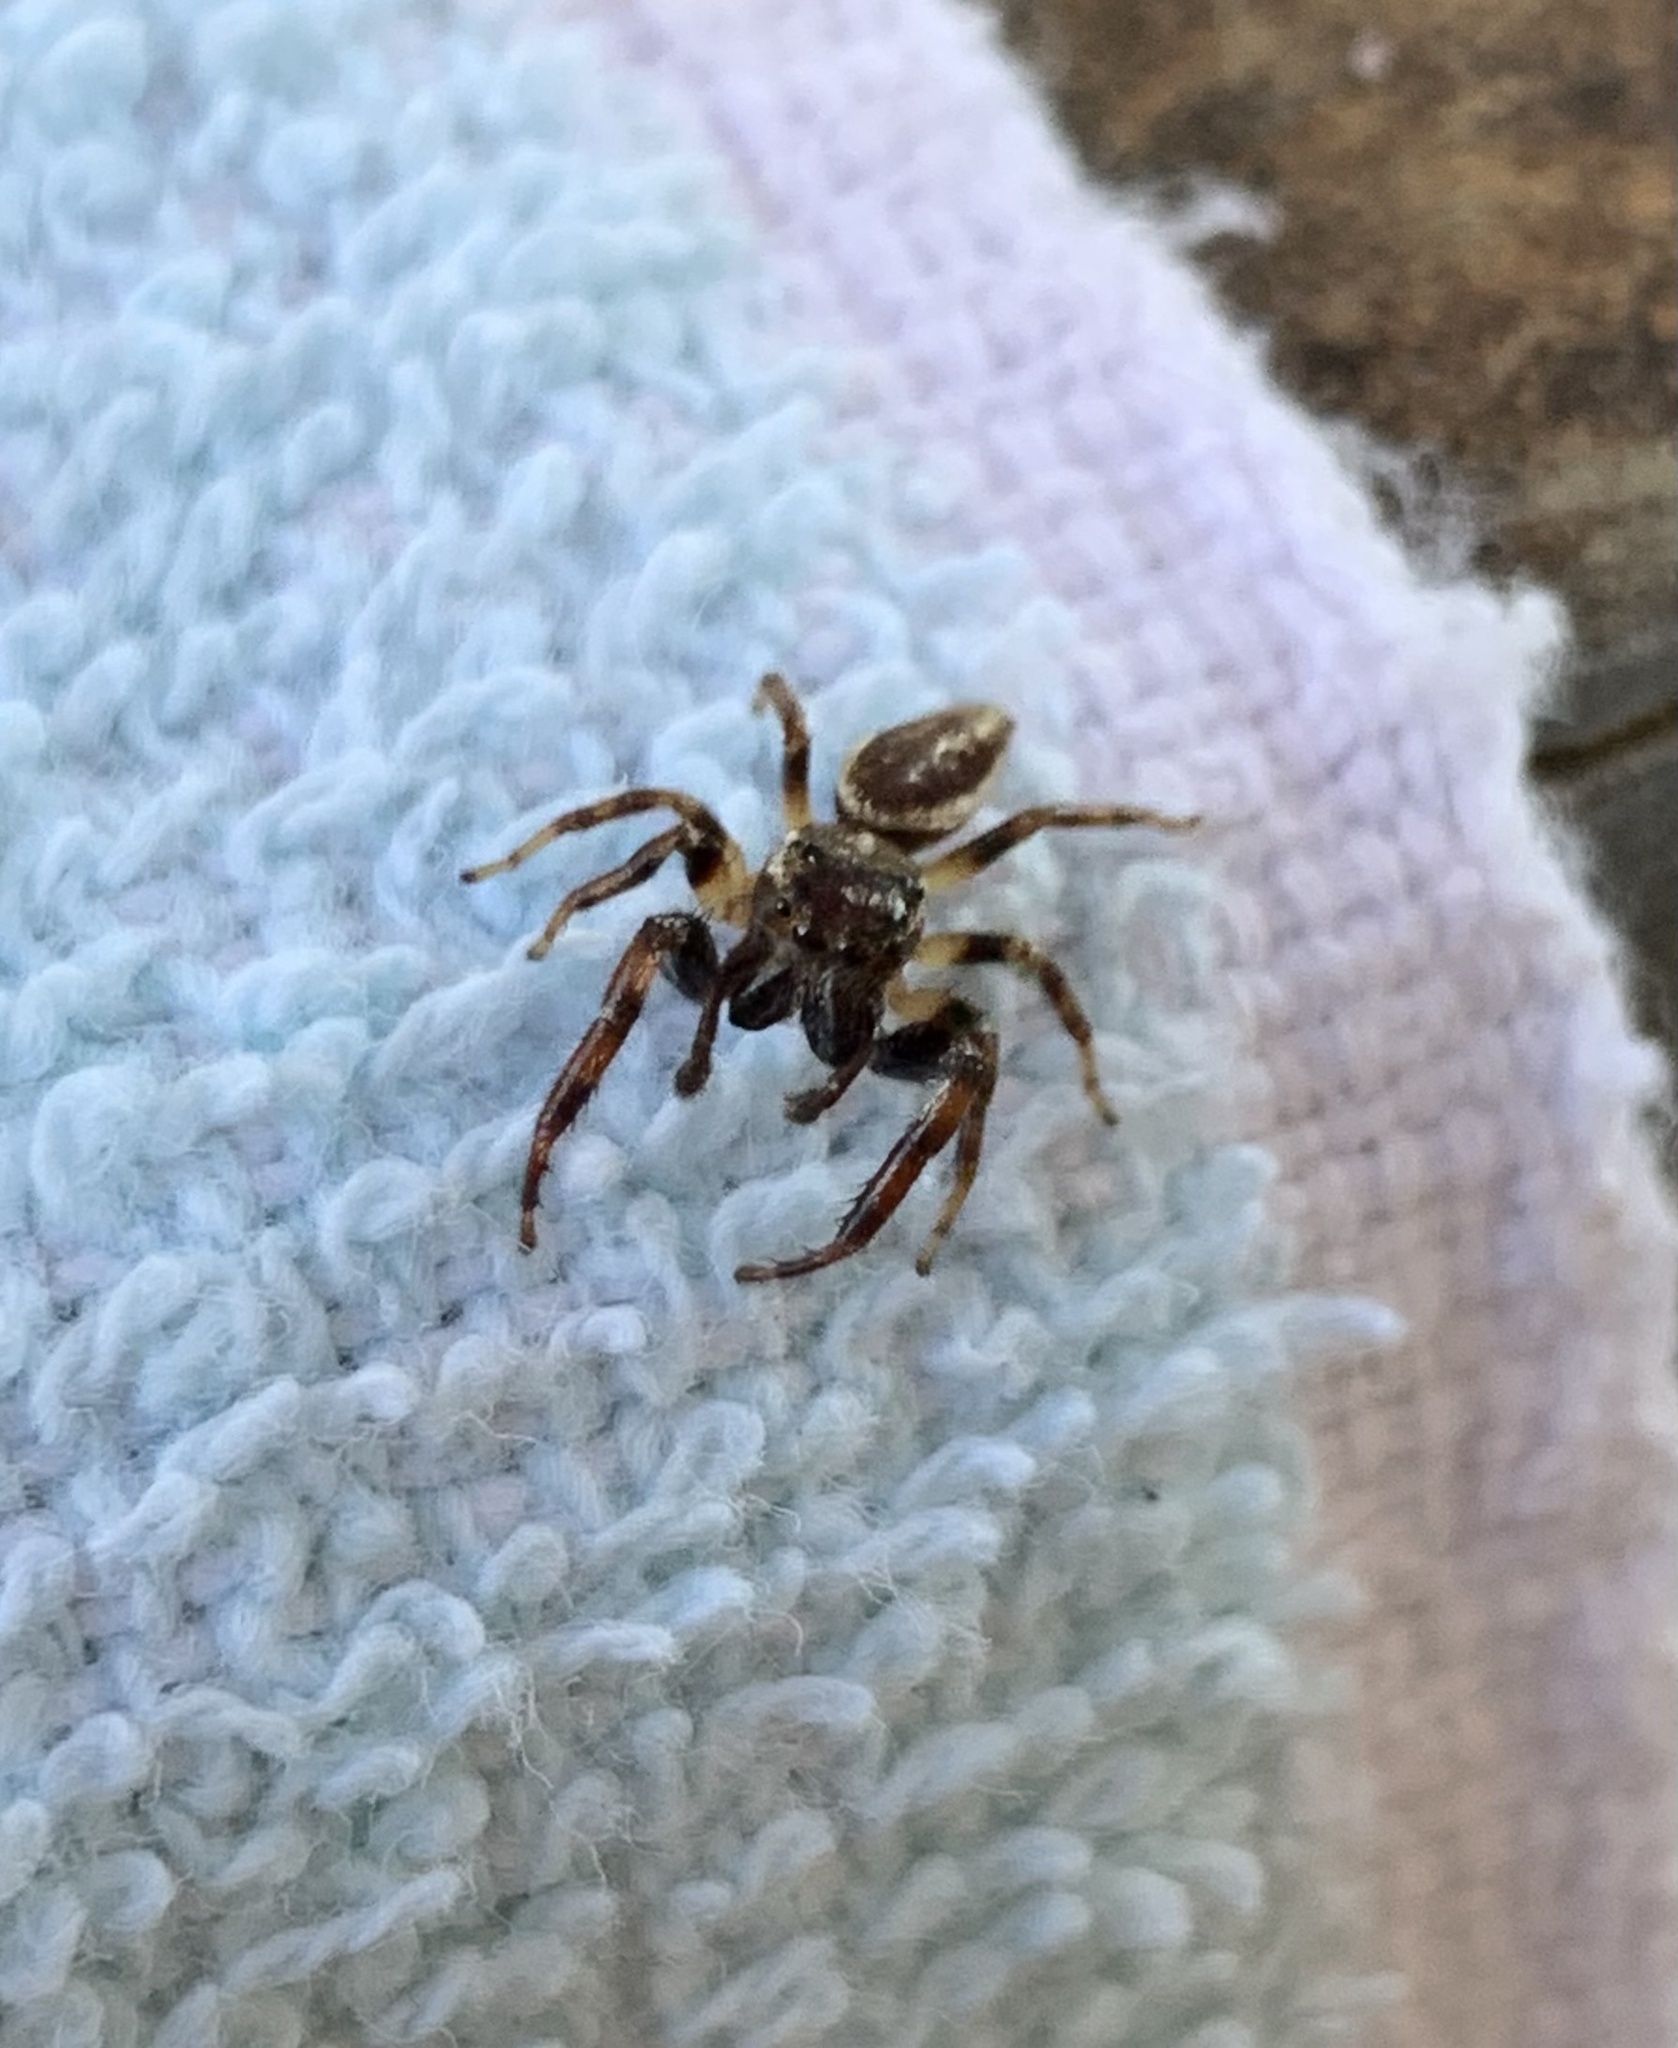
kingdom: Animalia
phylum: Arthropoda
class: Arachnida
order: Araneae
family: Salticidae
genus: Eris
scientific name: Eris militaris
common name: Bronze jumper
